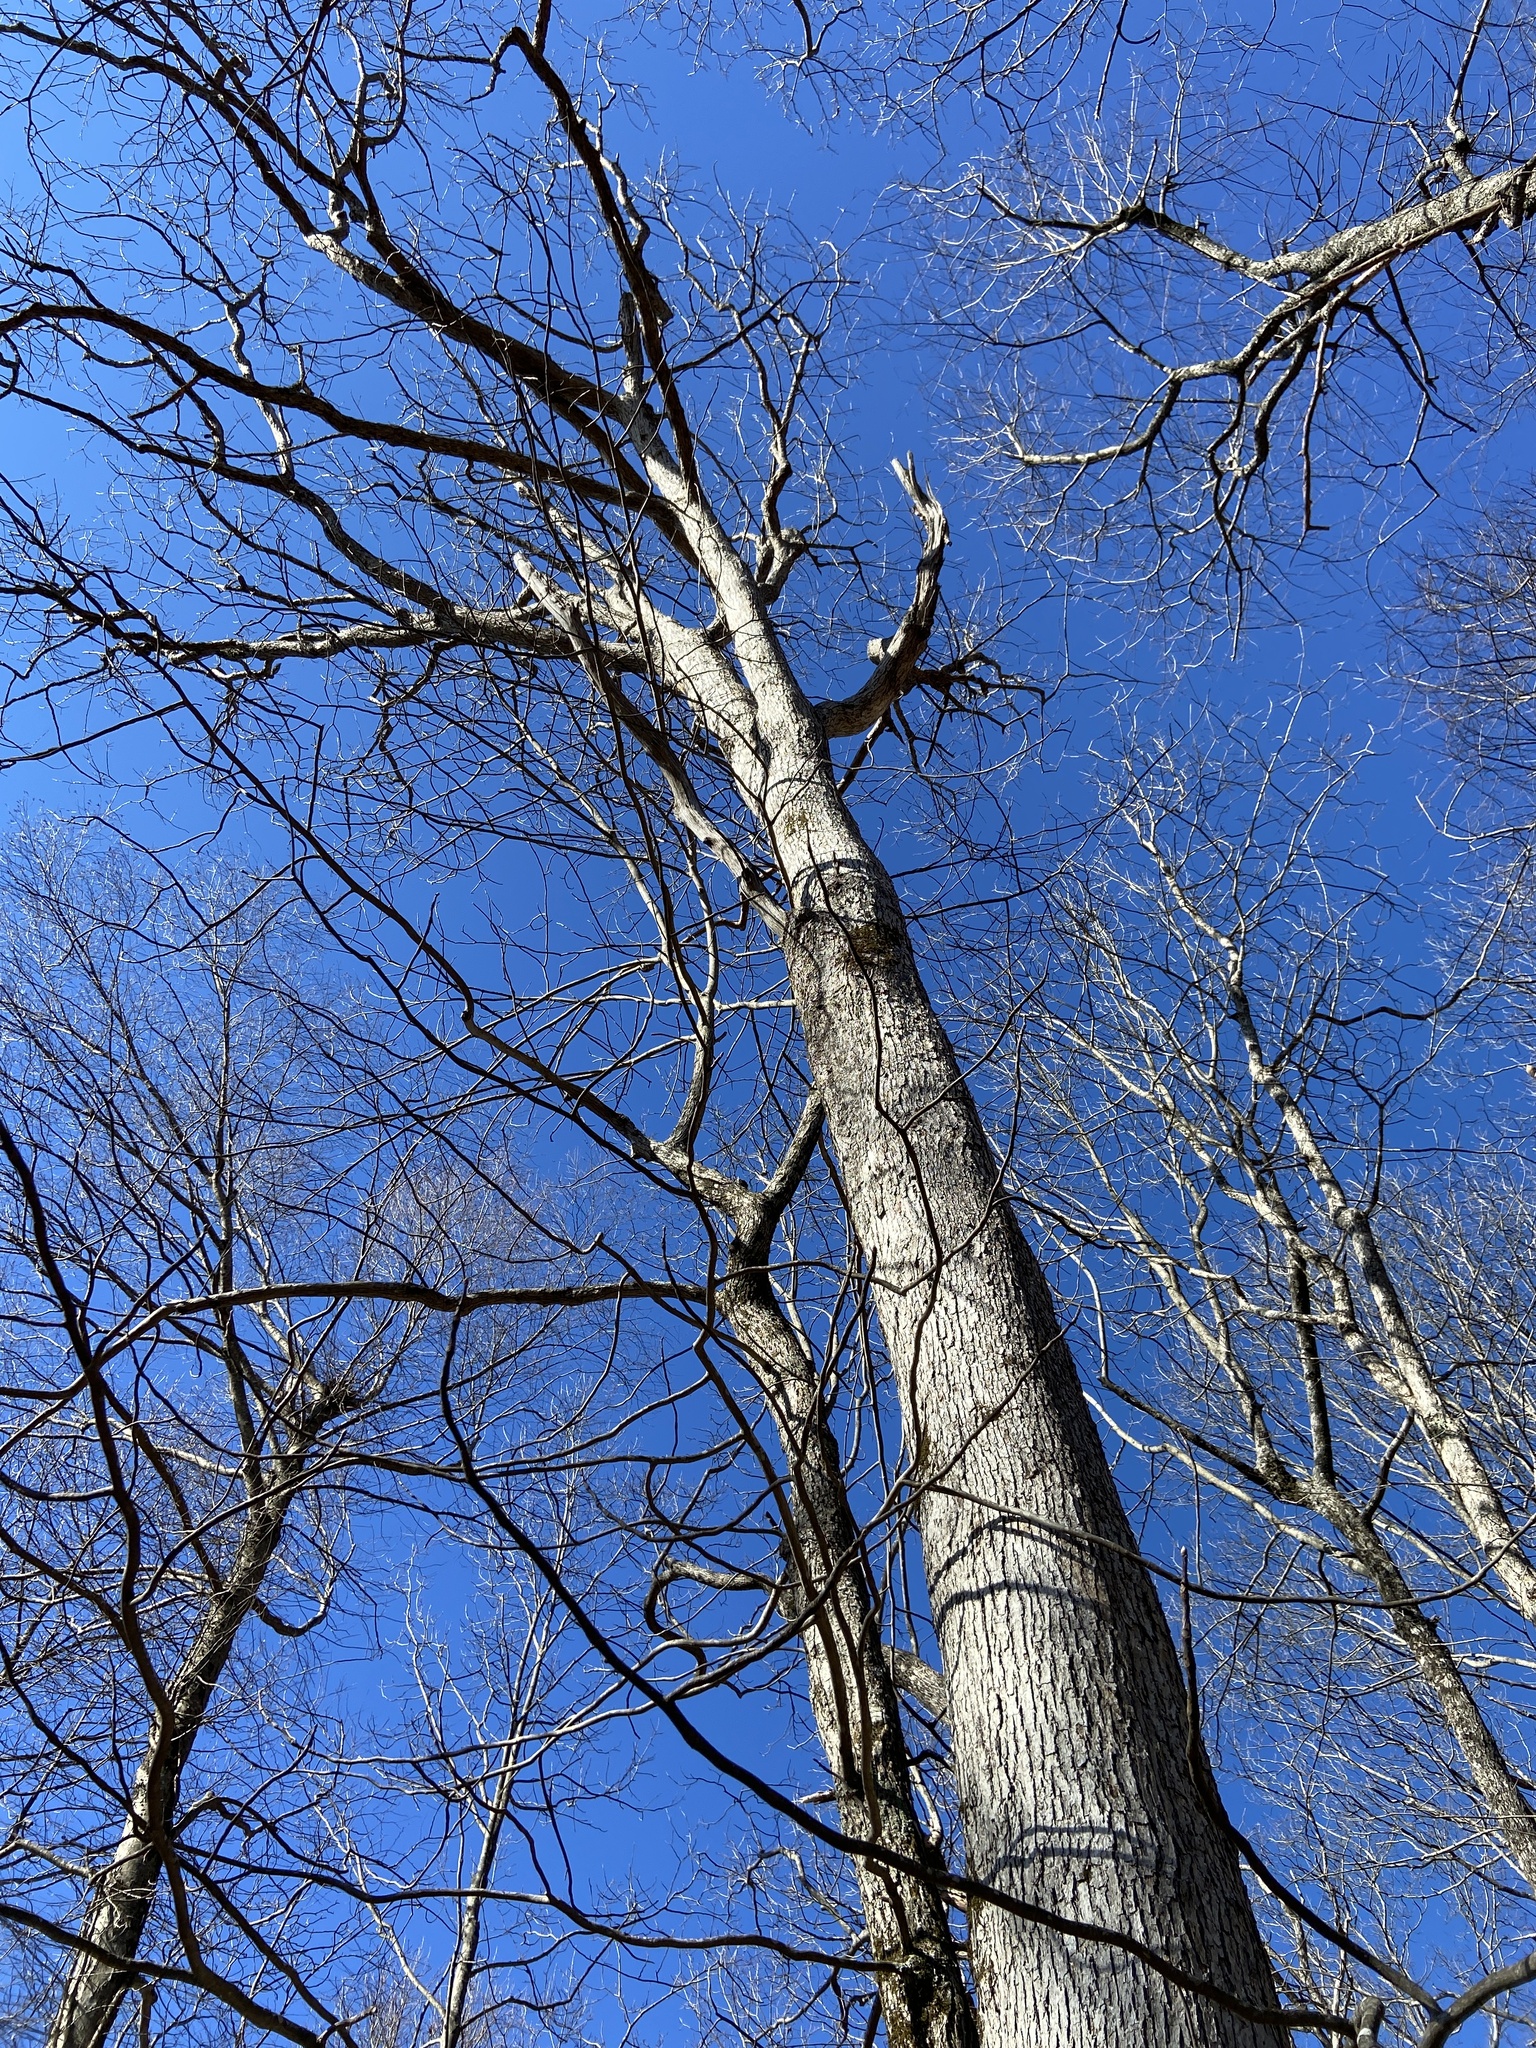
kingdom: Plantae
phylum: Tracheophyta
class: Magnoliopsida
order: Fagales
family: Juglandaceae
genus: Carya
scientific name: Carya glabra
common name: Pignut hickory
